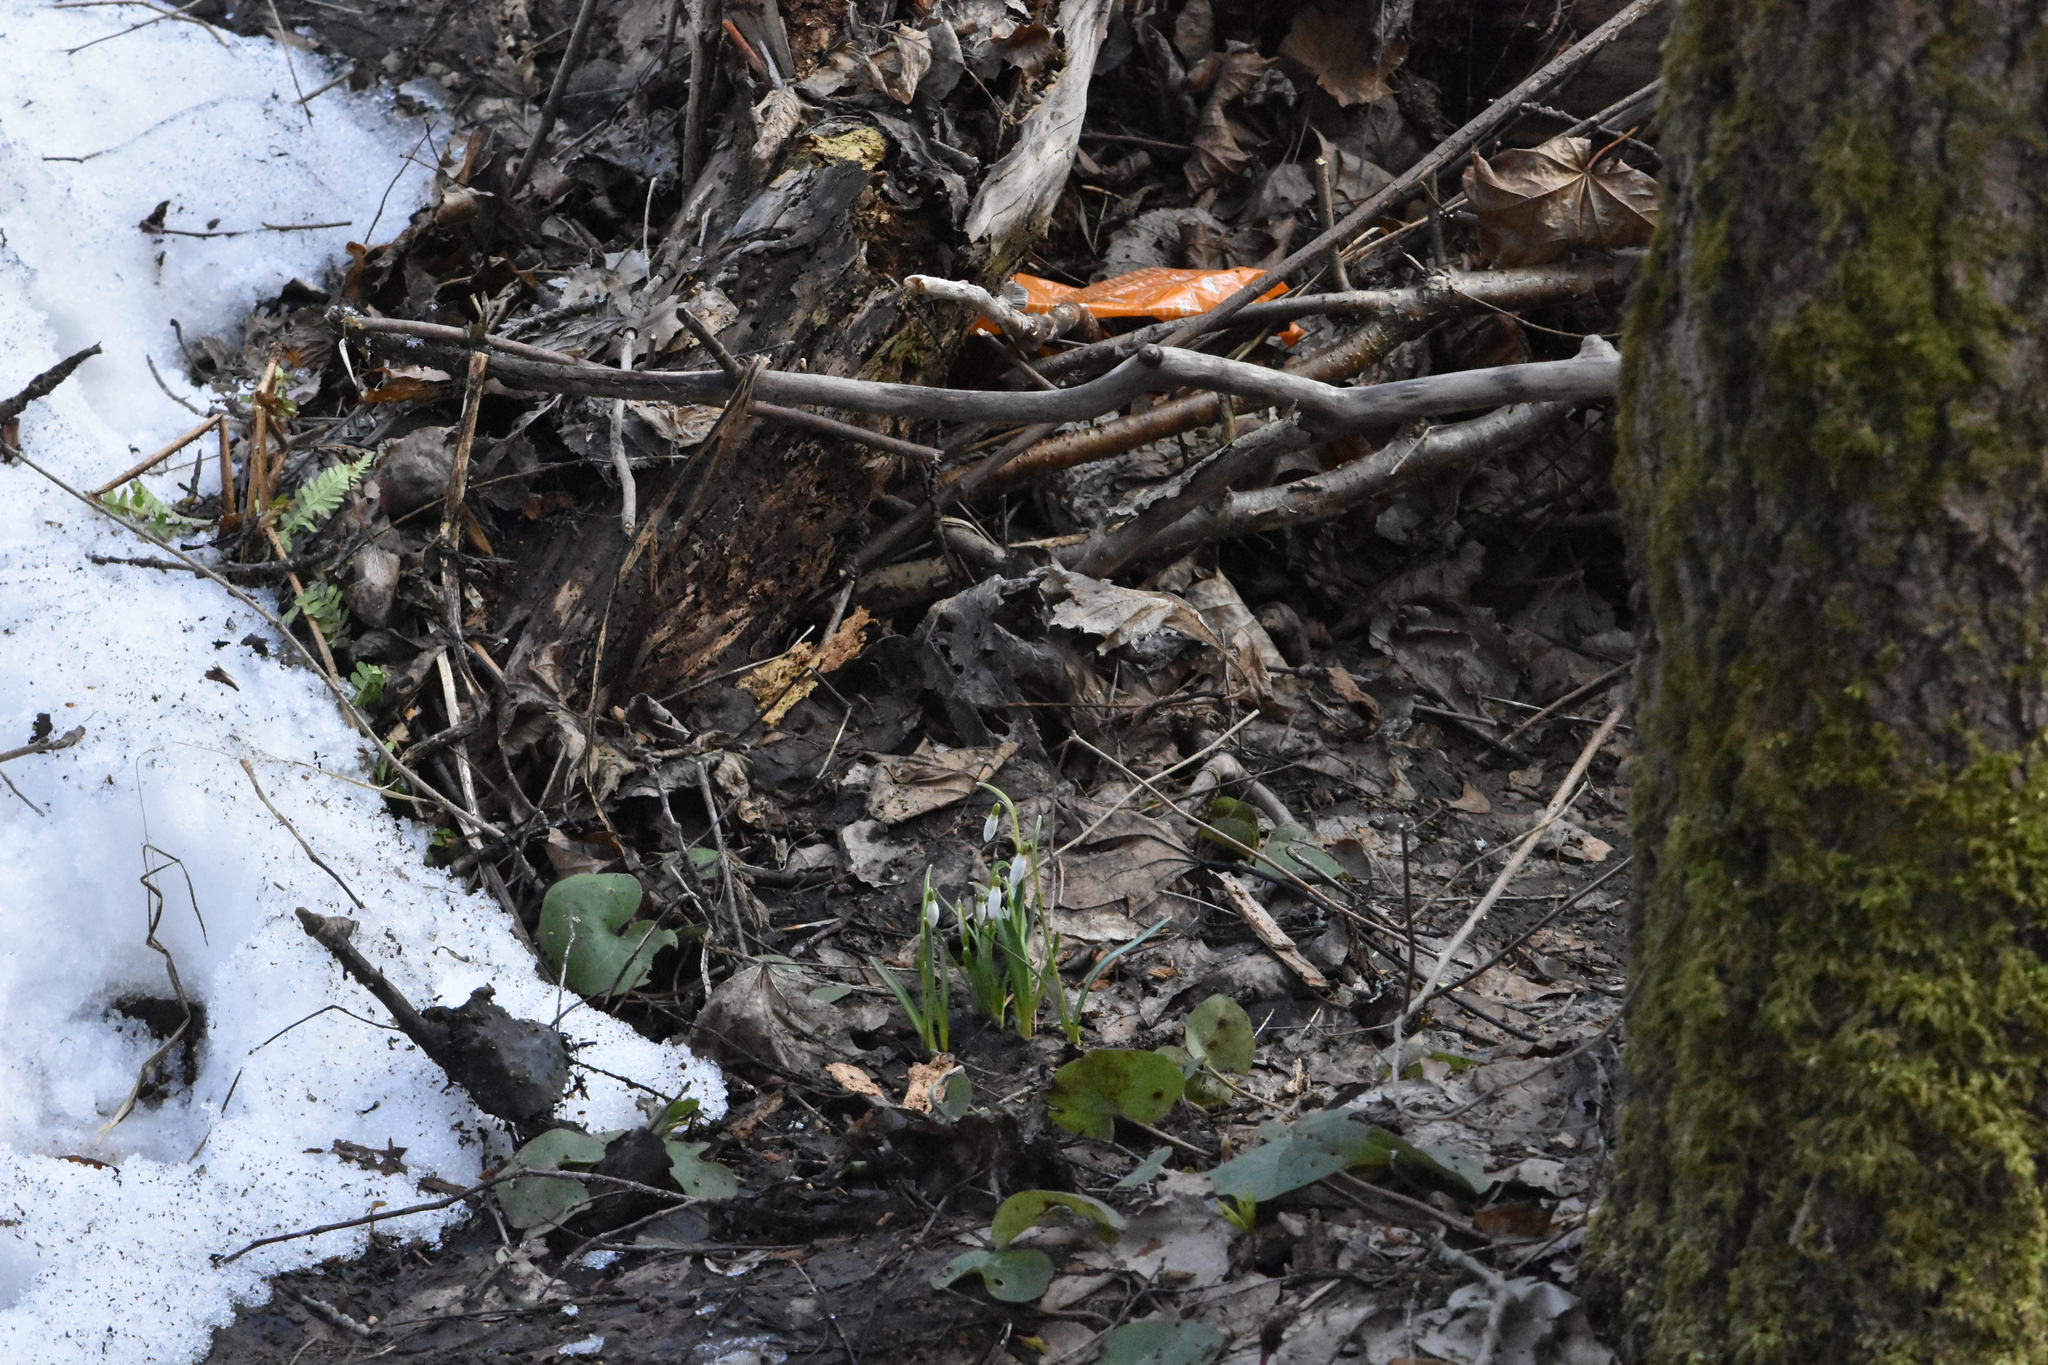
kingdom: Plantae
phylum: Tracheophyta
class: Liliopsida
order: Asparagales
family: Amaryllidaceae
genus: Galanthus
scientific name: Galanthus nivalis
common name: Snowdrop
